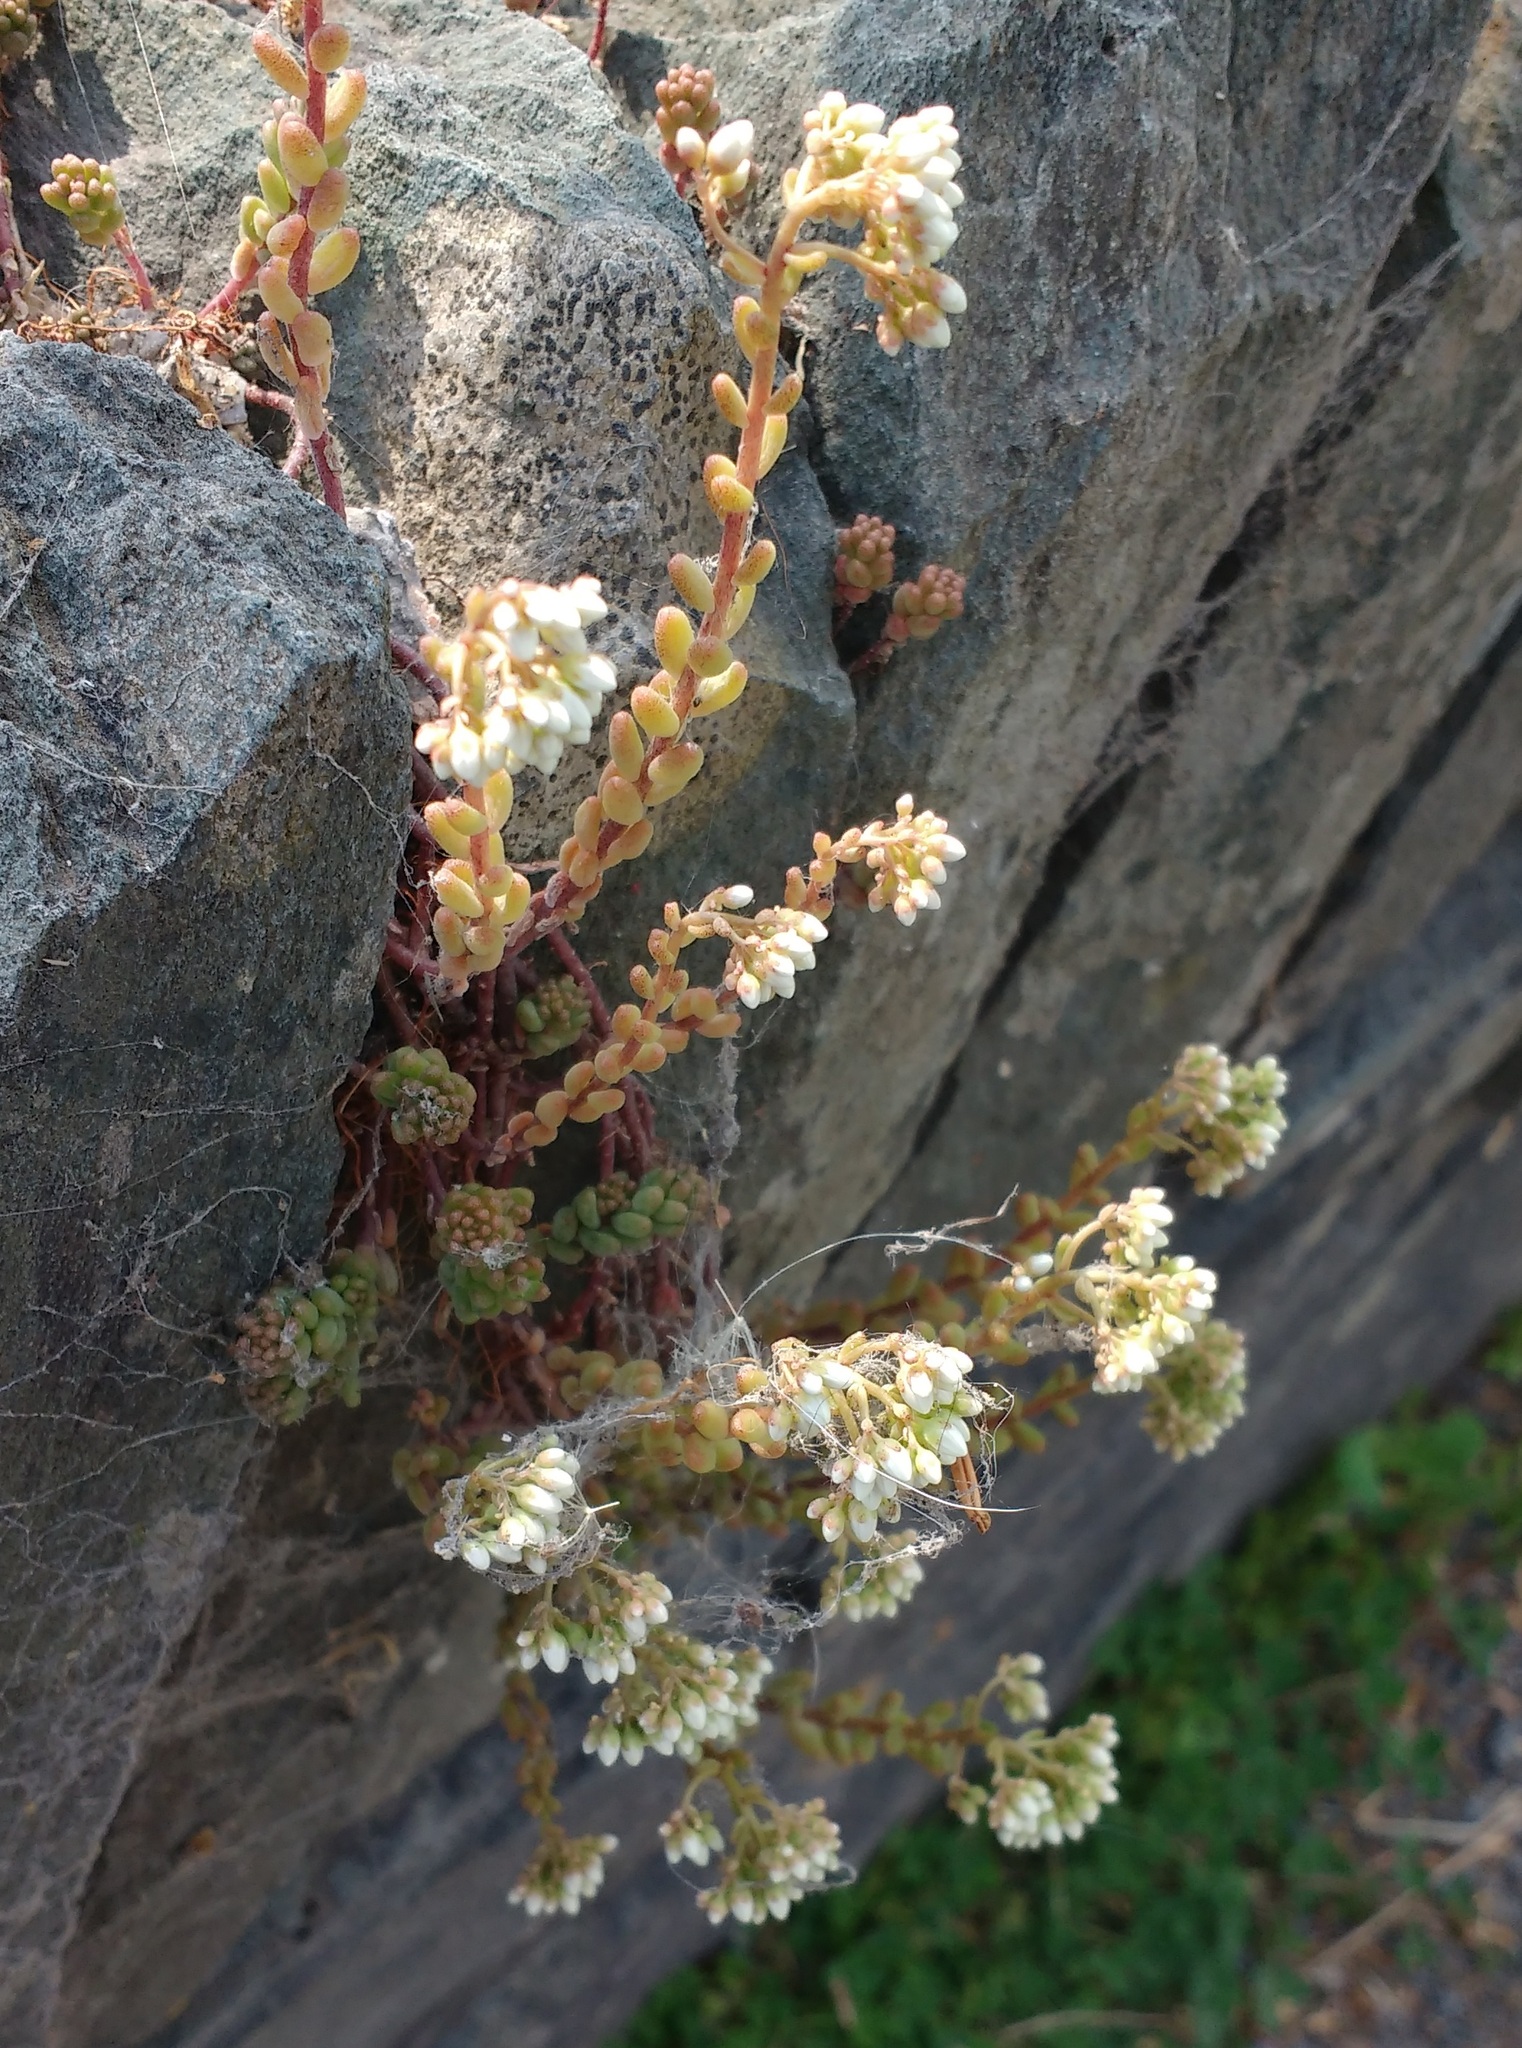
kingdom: Plantae
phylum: Tracheophyta
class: Magnoliopsida
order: Saxifragales
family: Crassulaceae
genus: Sedum
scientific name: Sedum album
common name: White stonecrop
